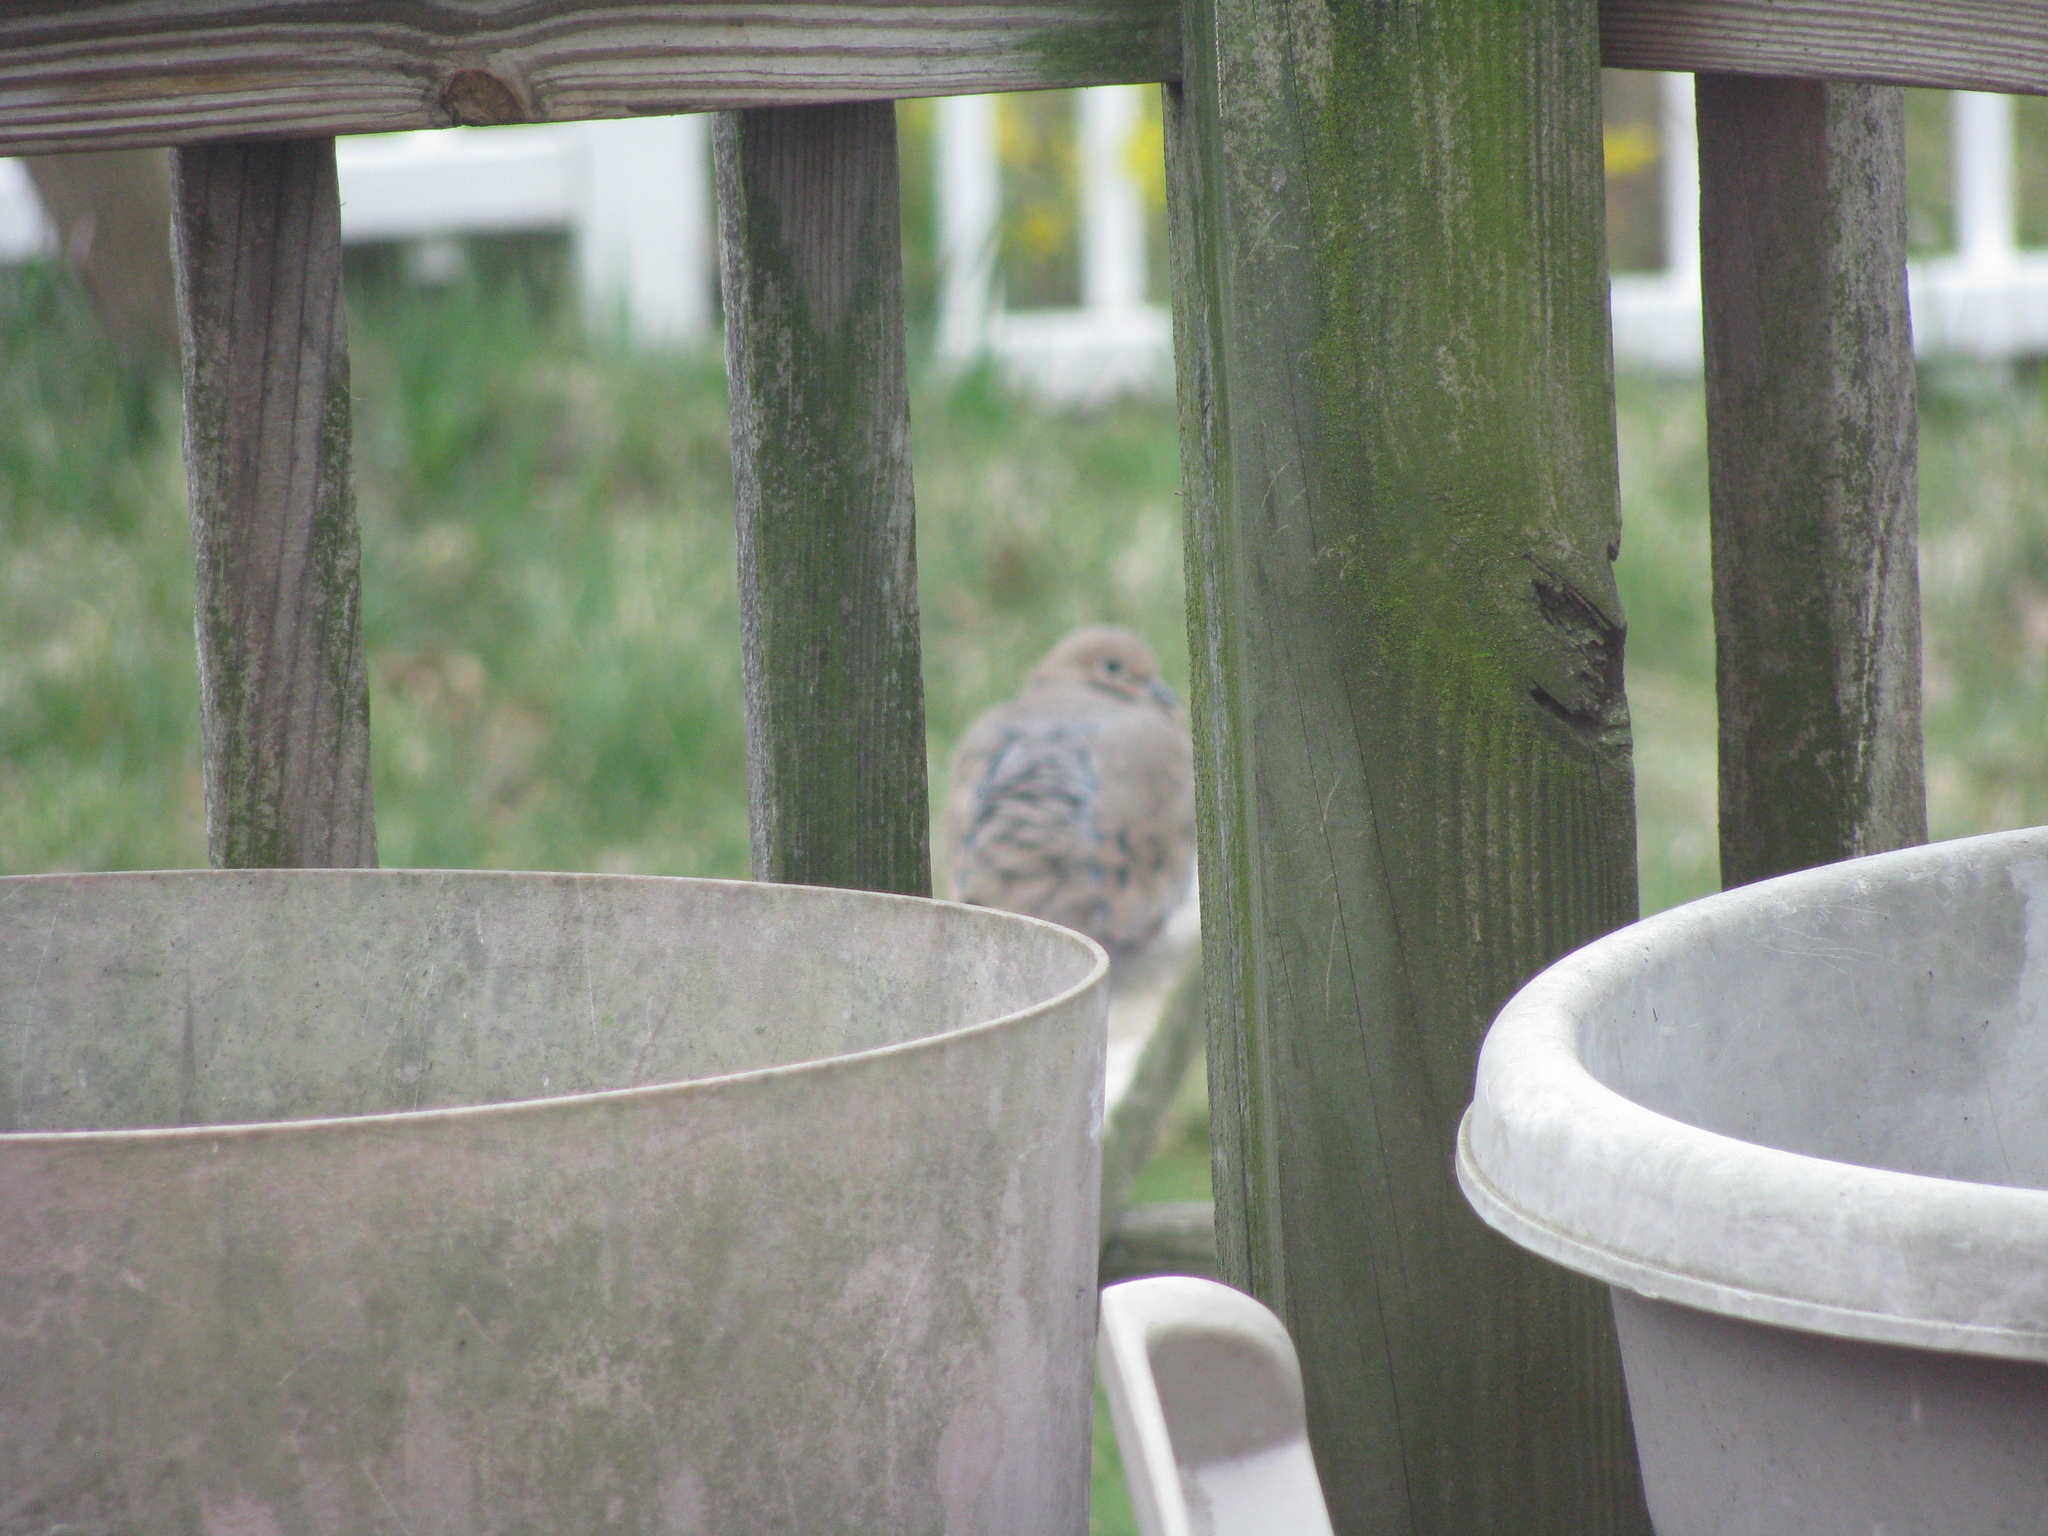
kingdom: Animalia
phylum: Chordata
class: Aves
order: Columbiformes
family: Columbidae
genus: Zenaida
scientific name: Zenaida macroura
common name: Mourning dove
